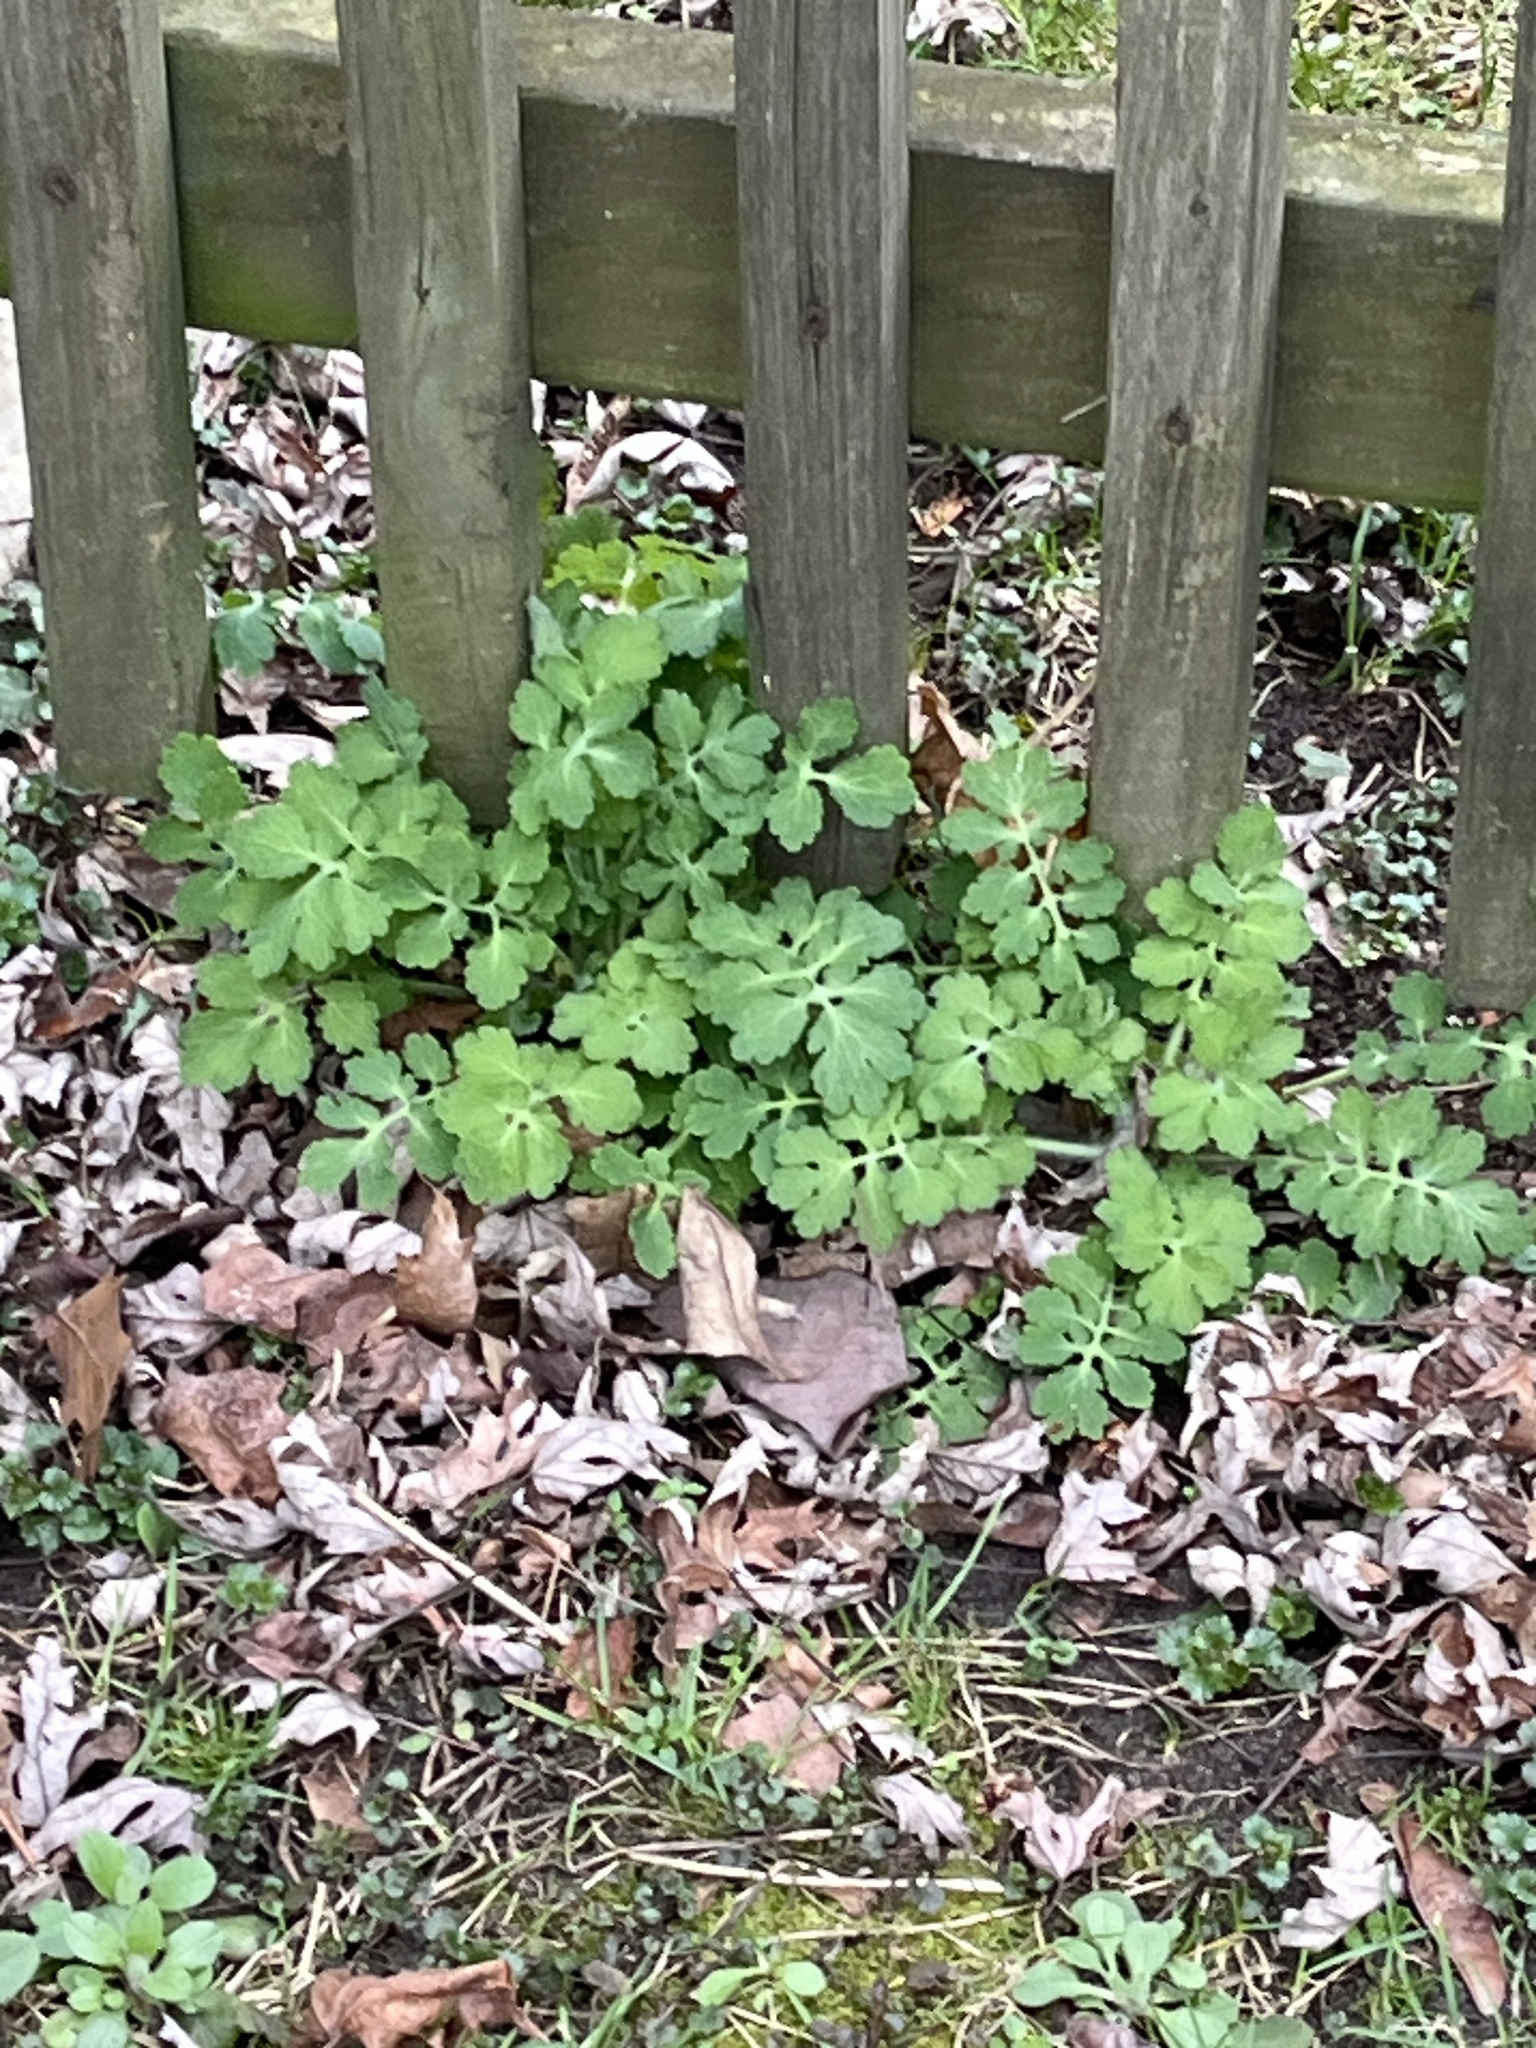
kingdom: Plantae
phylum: Tracheophyta
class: Magnoliopsida
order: Ranunculales
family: Papaveraceae
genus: Chelidonium
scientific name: Chelidonium majus
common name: Greater celandine
